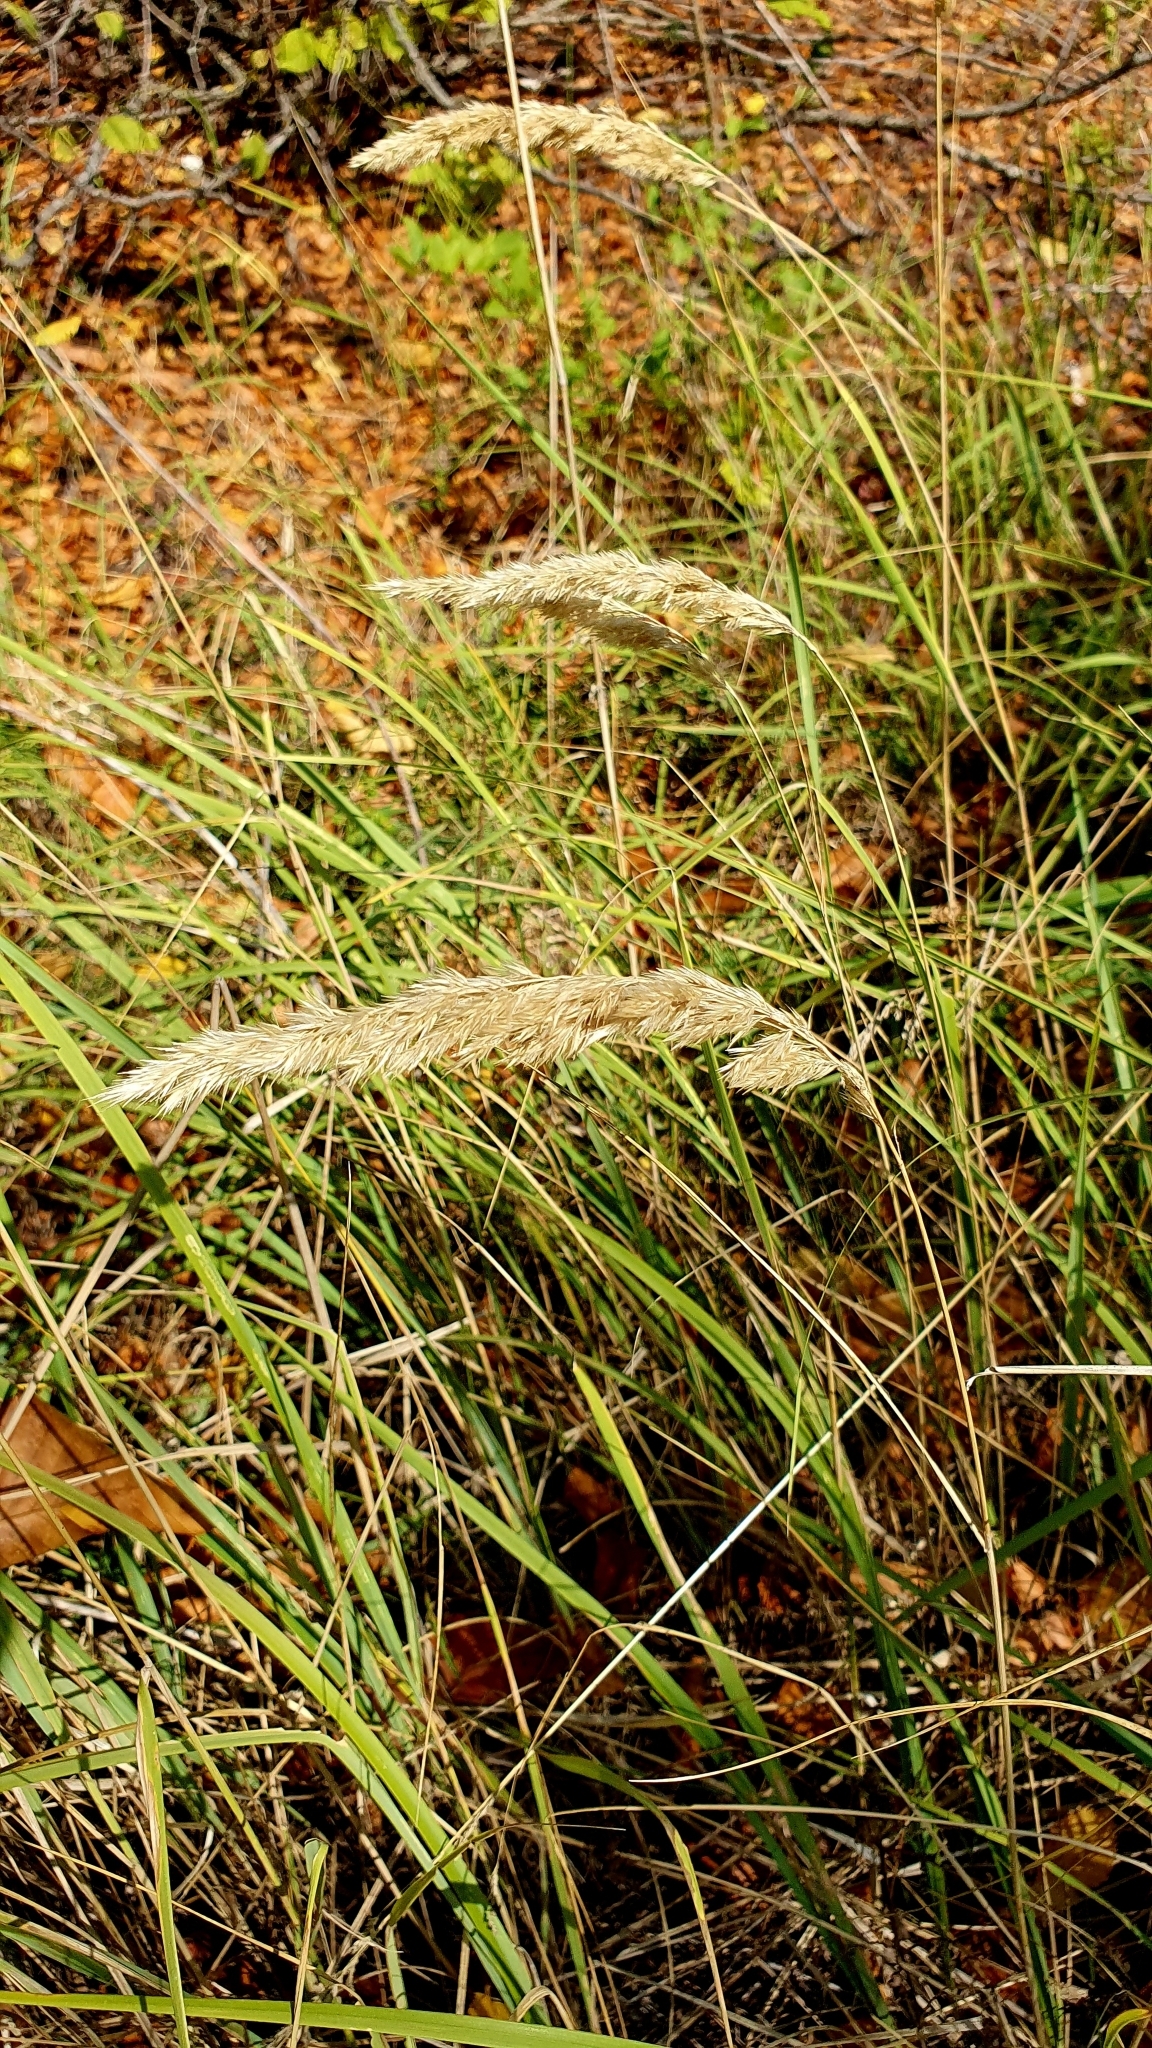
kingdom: Plantae
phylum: Tracheophyta
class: Liliopsida
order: Poales
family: Poaceae
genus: Calamagrostis
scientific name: Calamagrostis epigejos
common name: Wood small-reed
